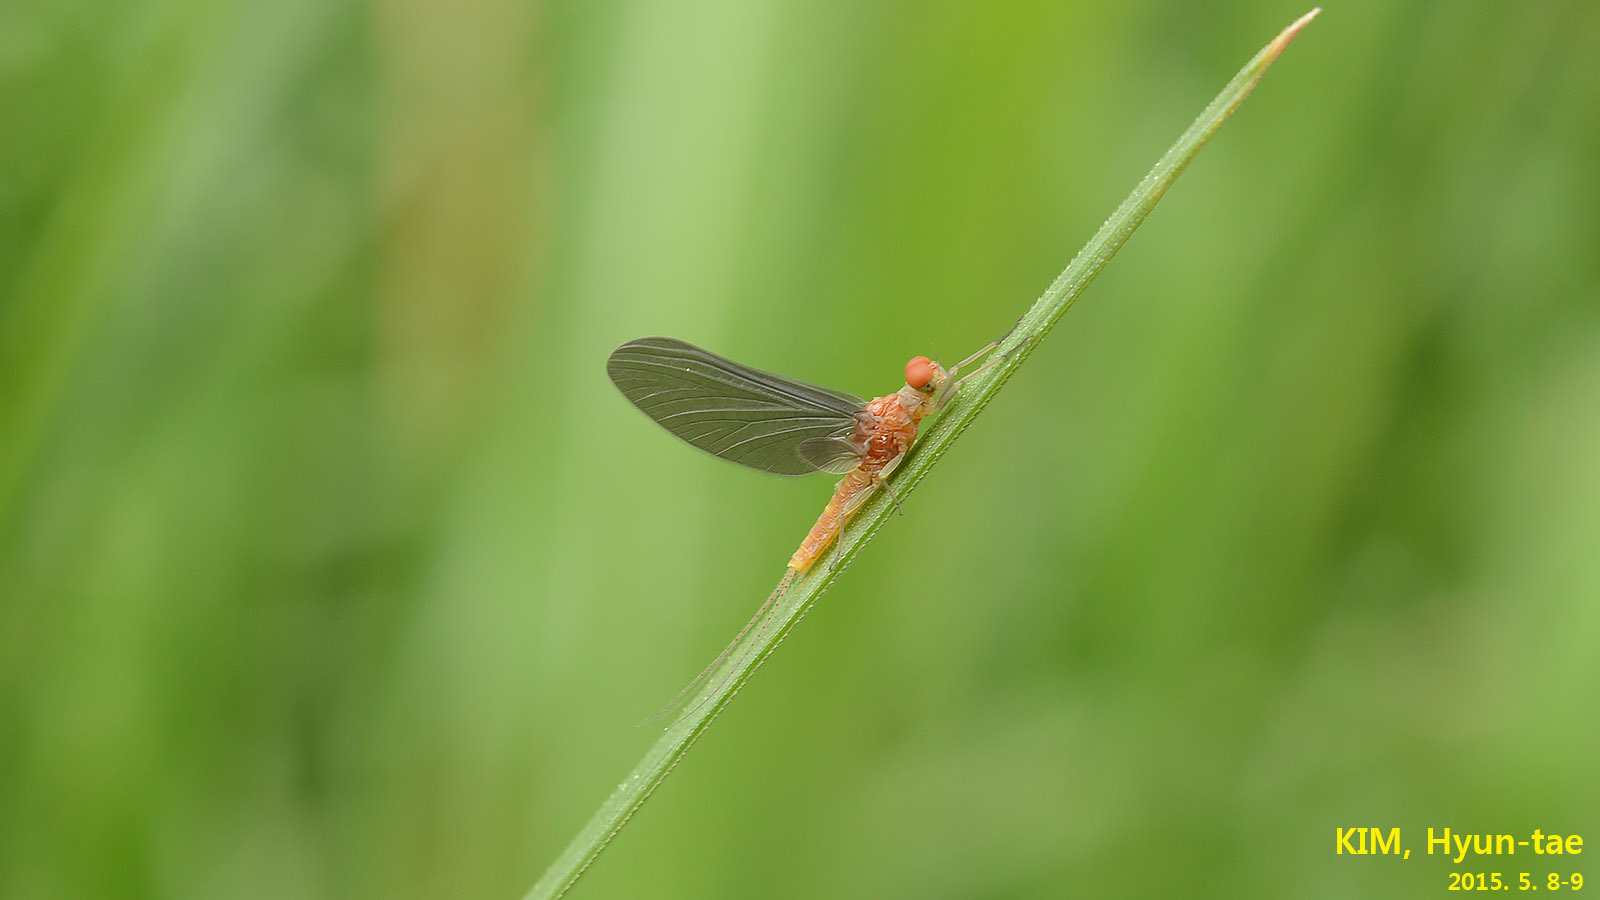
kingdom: Animalia
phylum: Arthropoda
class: Insecta
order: Ephemeroptera
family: Ephemerellidae
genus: Uracanthella
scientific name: Uracanthella
